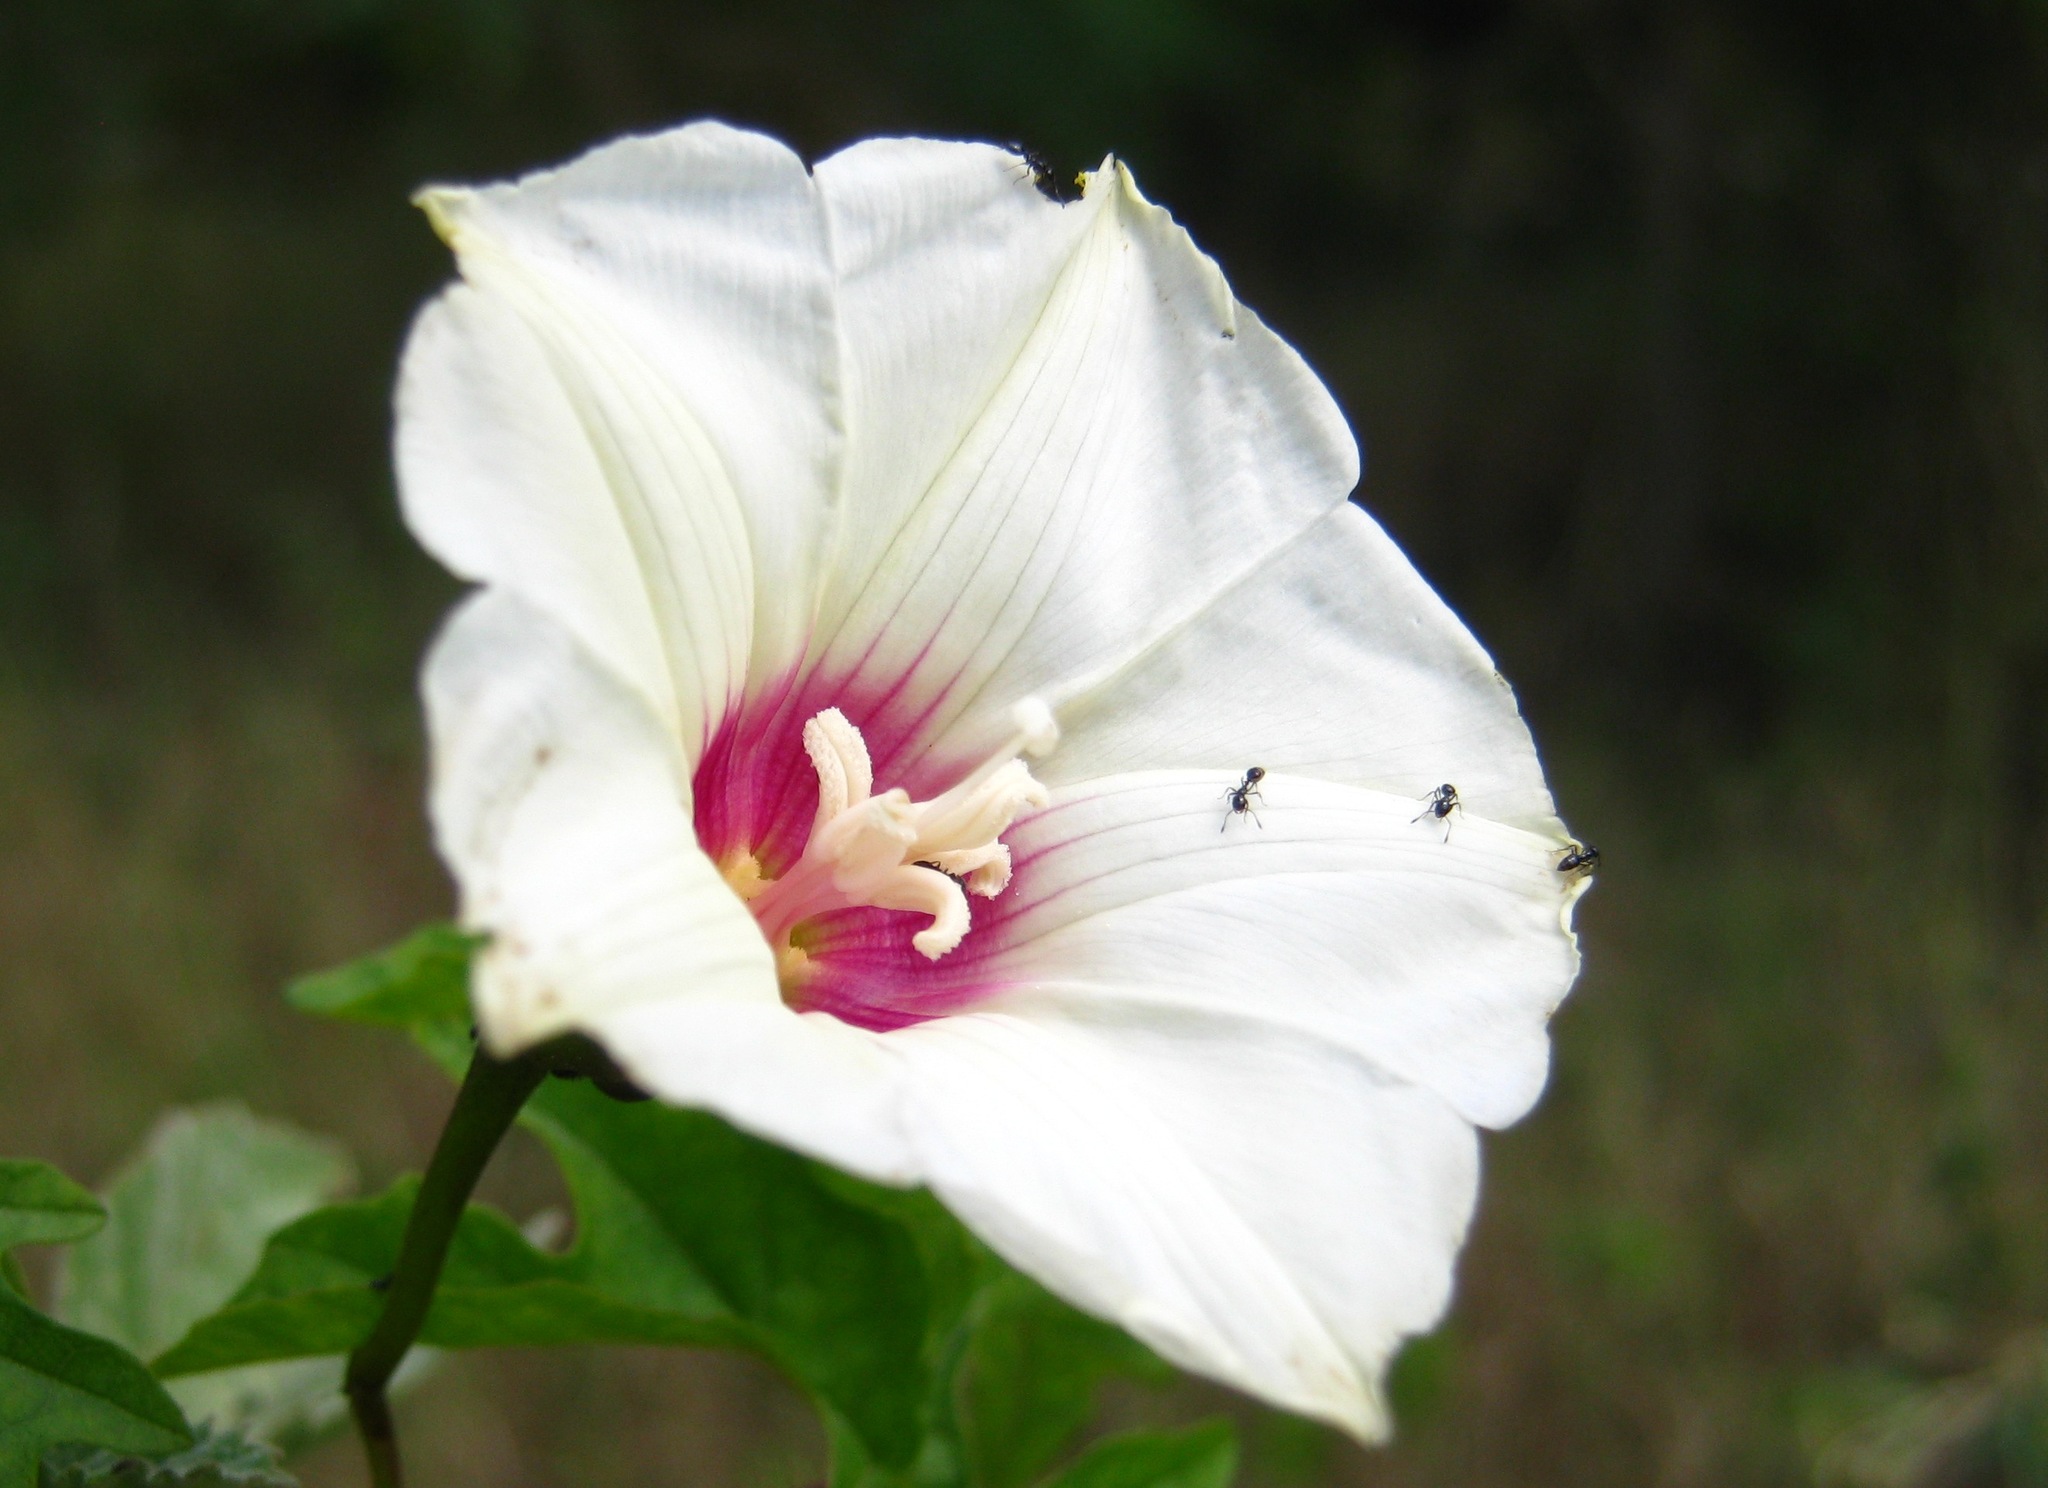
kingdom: Plantae
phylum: Tracheophyta
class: Magnoliopsida
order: Solanales
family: Convolvulaceae
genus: Distimake
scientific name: Distimake dissectus
